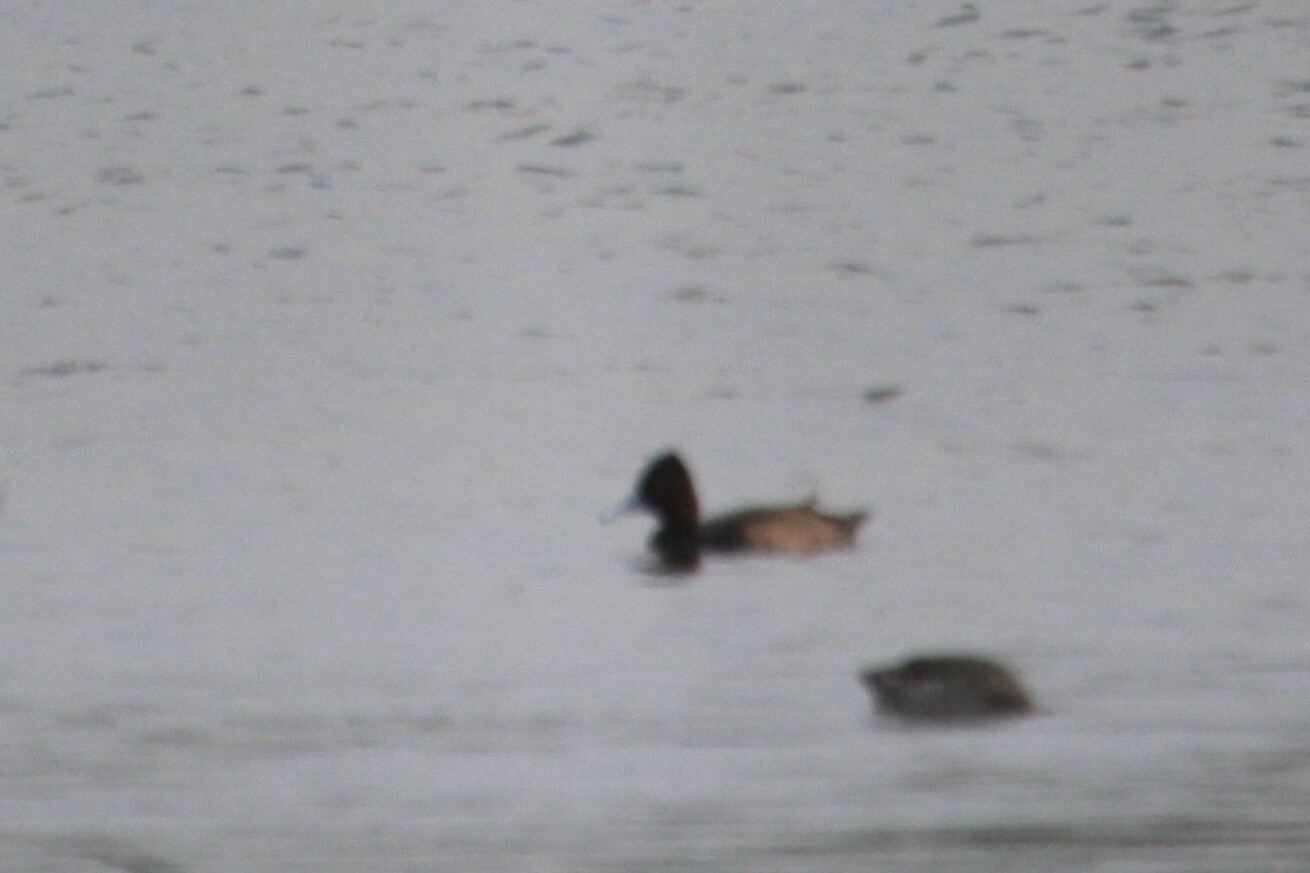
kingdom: Animalia
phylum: Chordata
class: Aves
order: Anseriformes
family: Anatidae
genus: Netta
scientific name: Netta erythrophthalma
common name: Southern pochard
